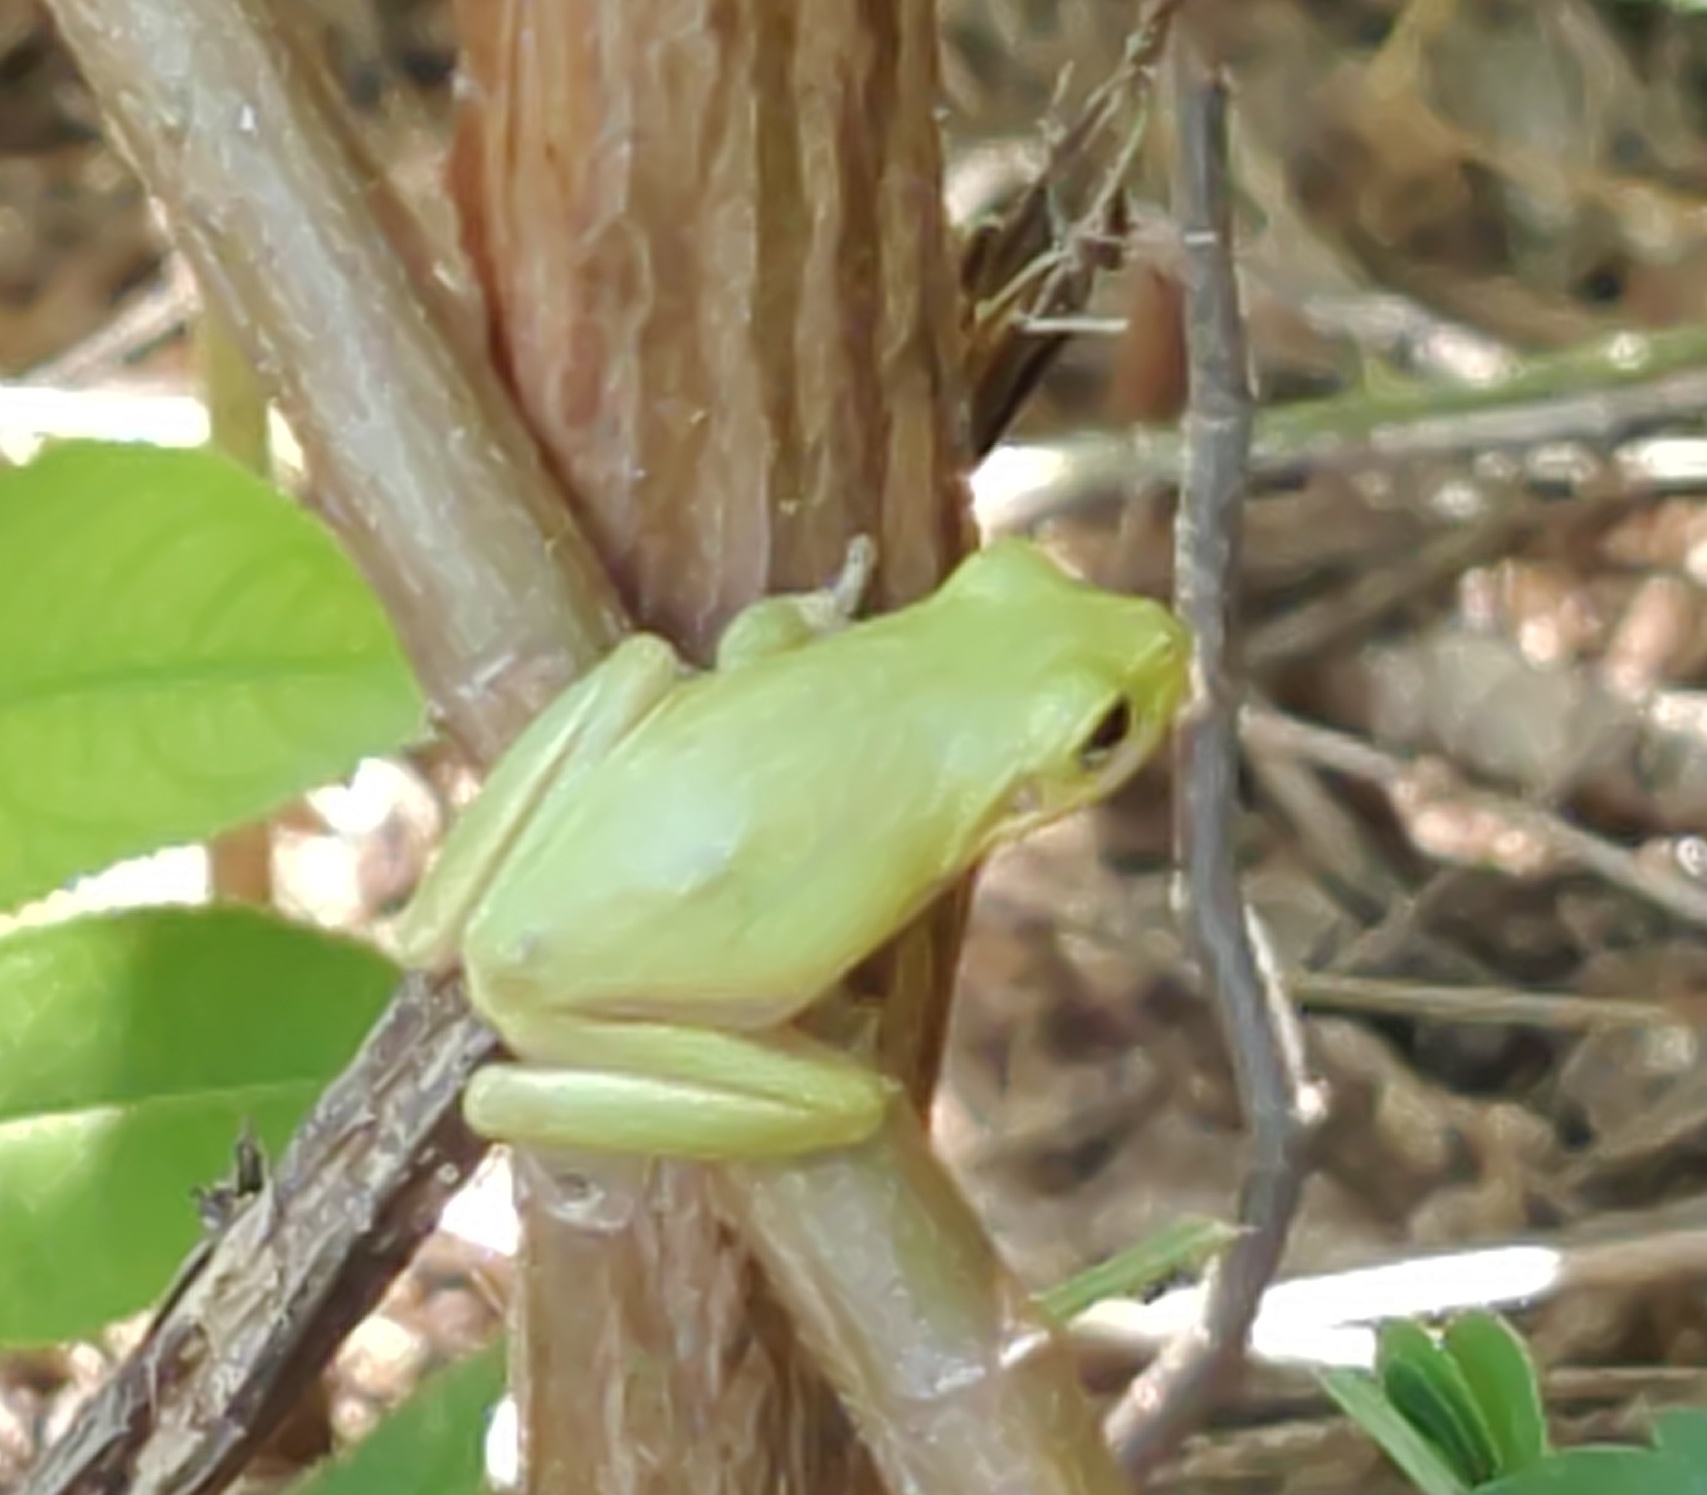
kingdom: Animalia
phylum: Chordata
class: Amphibia
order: Anura
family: Hylidae
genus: Dryophytes
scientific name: Dryophytes squirellus
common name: Squirrel treefrog
